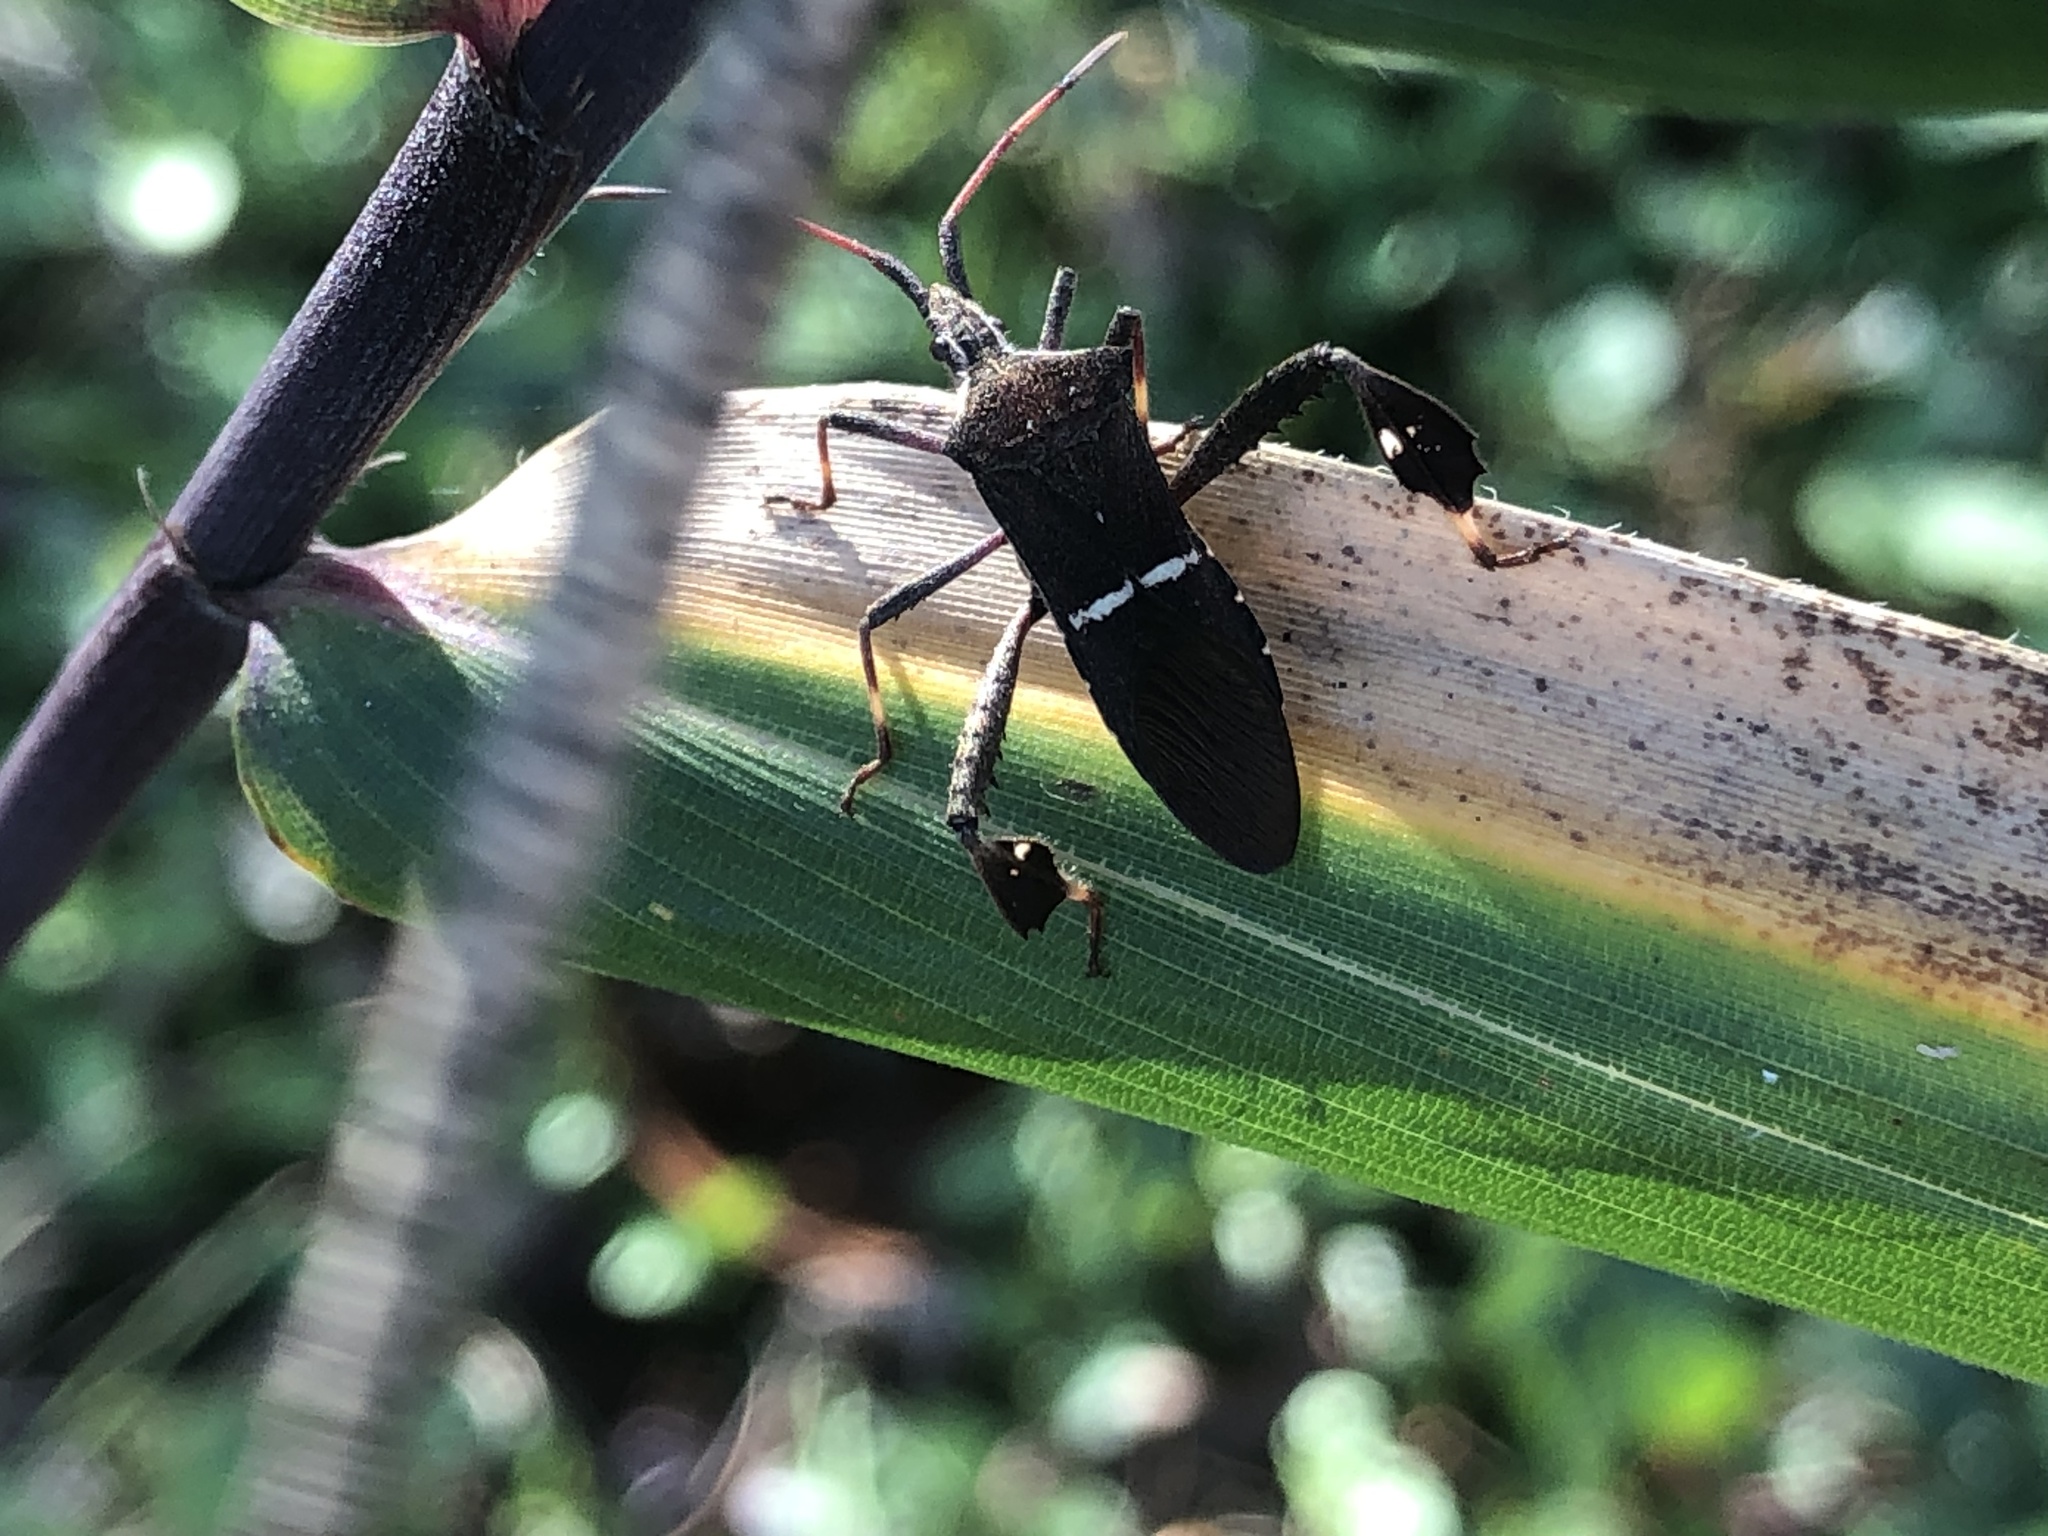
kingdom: Animalia
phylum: Arthropoda
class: Insecta
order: Hemiptera
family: Coreidae
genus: Leptoglossus
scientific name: Leptoglossus phyllopus
